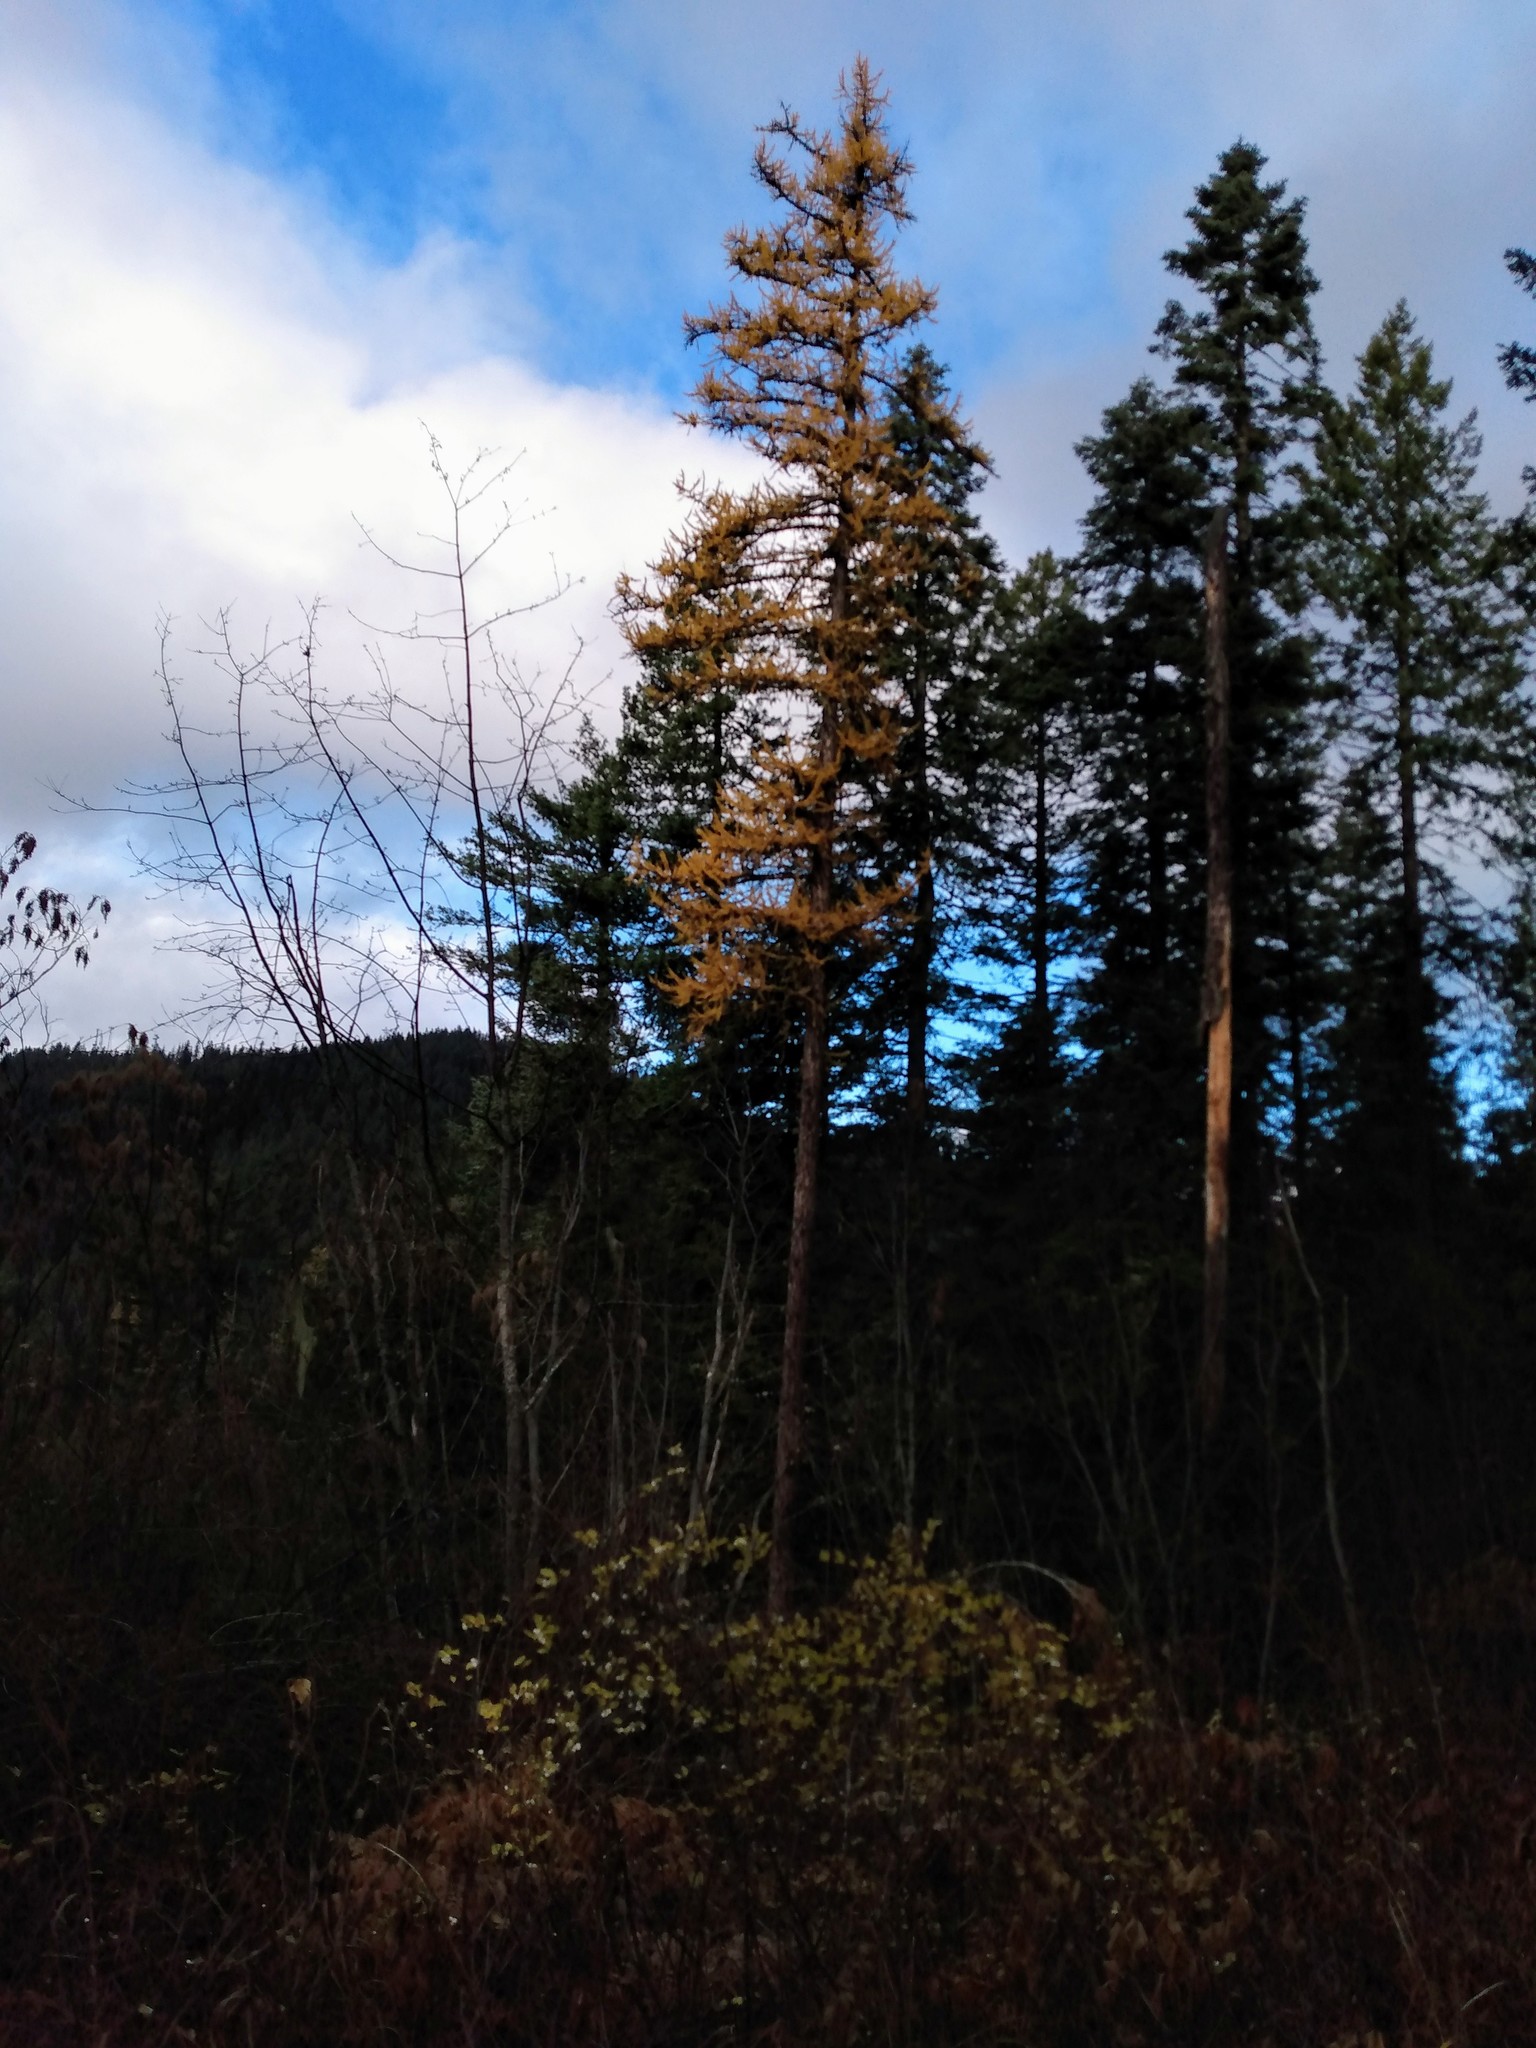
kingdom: Plantae
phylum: Tracheophyta
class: Pinopsida
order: Pinales
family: Pinaceae
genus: Larix
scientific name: Larix occidentalis
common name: Western larch
